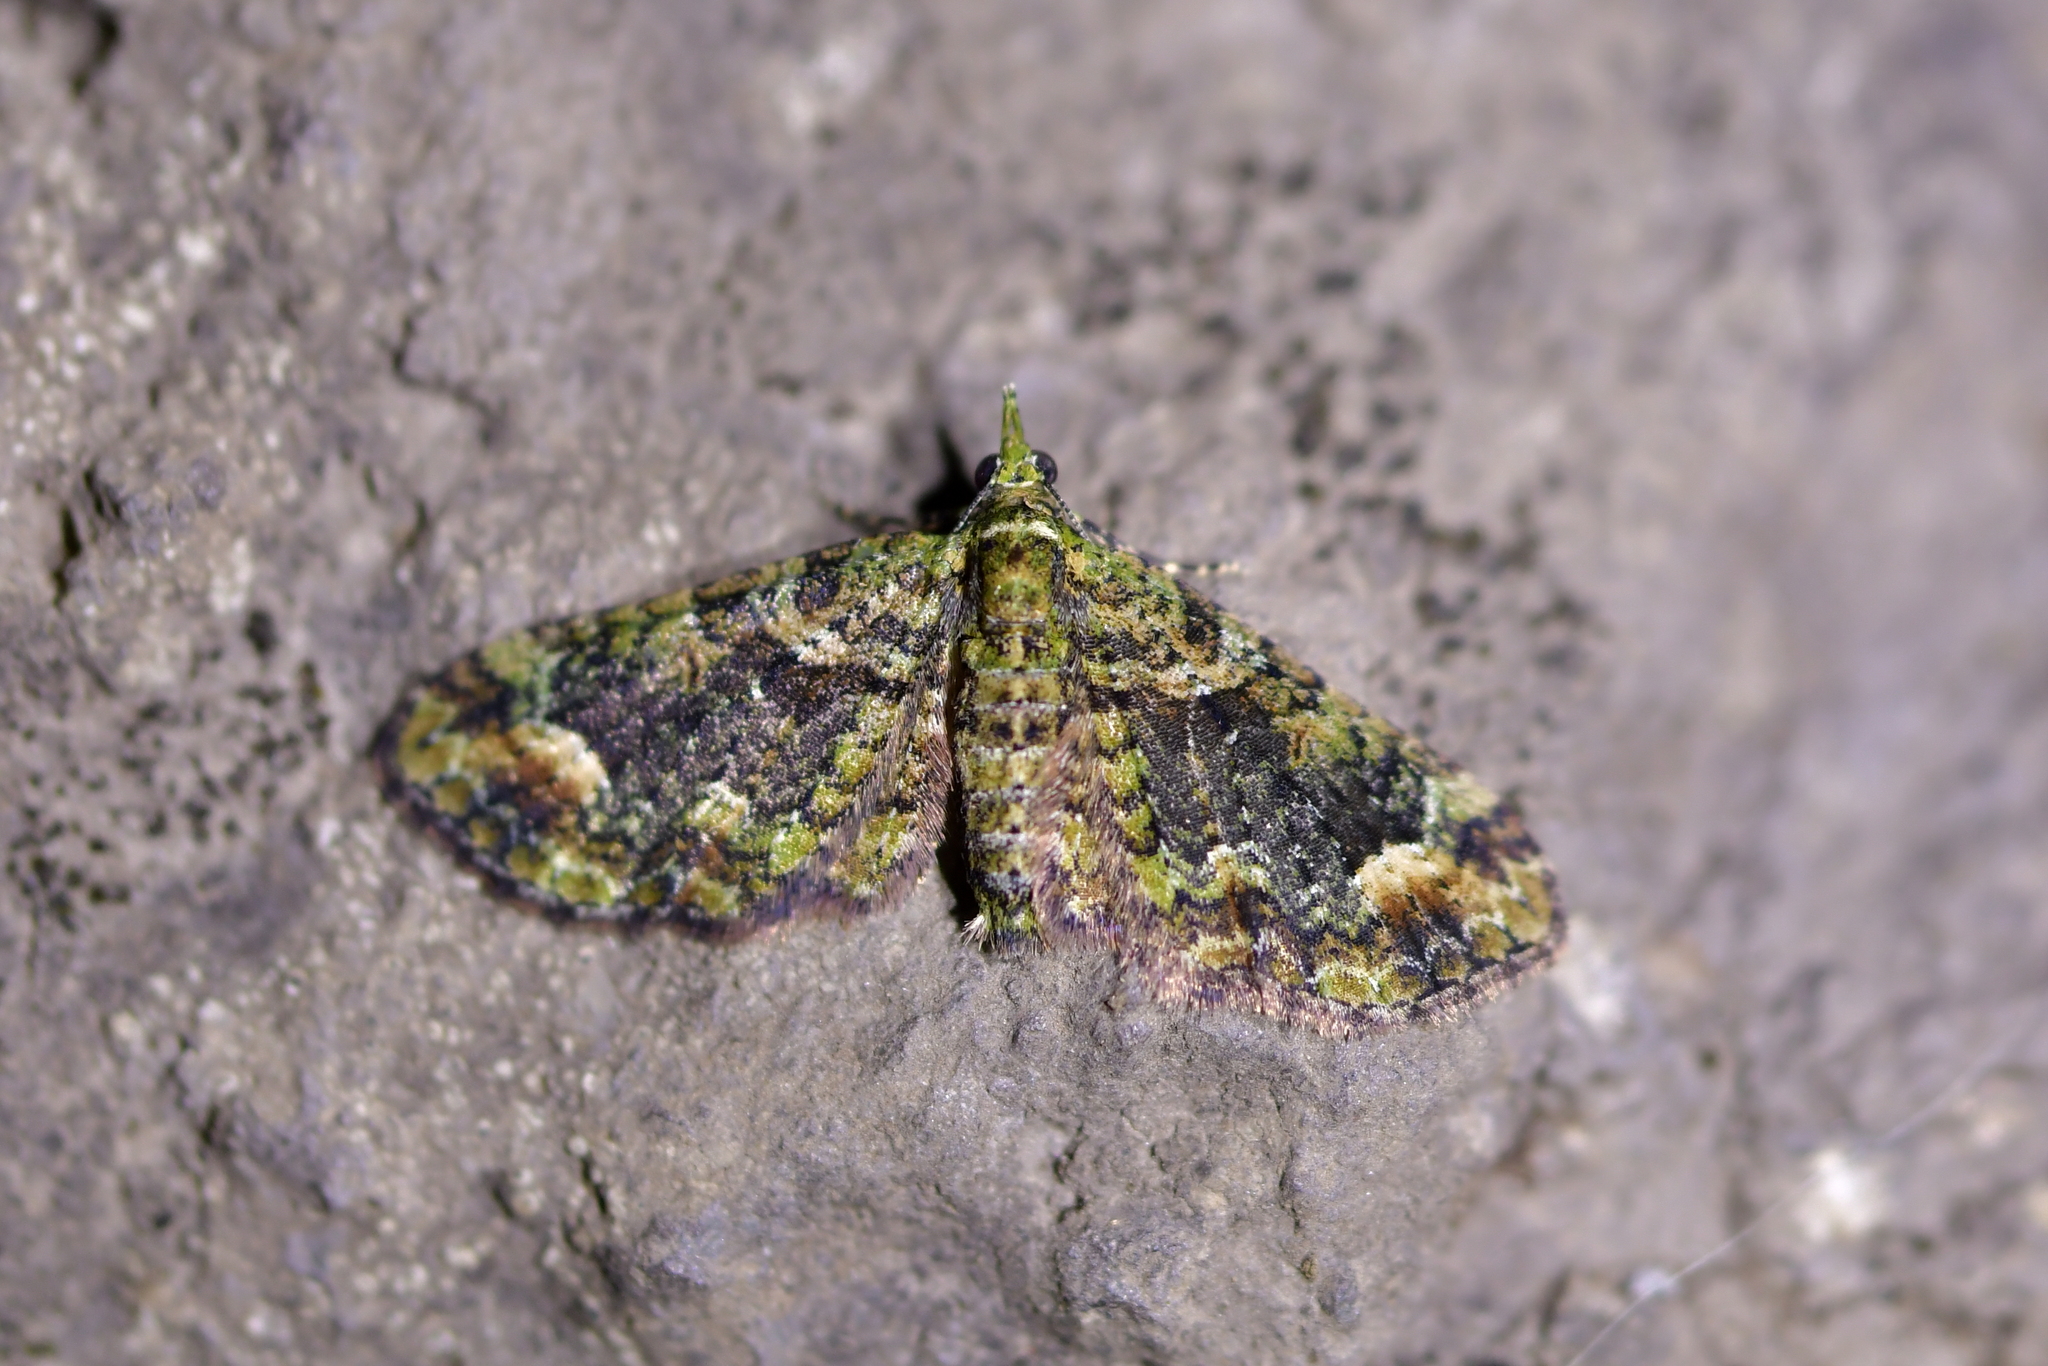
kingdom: Animalia
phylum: Arthropoda
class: Insecta
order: Lepidoptera
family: Geometridae
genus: Idaea
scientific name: Idaea mutanda
